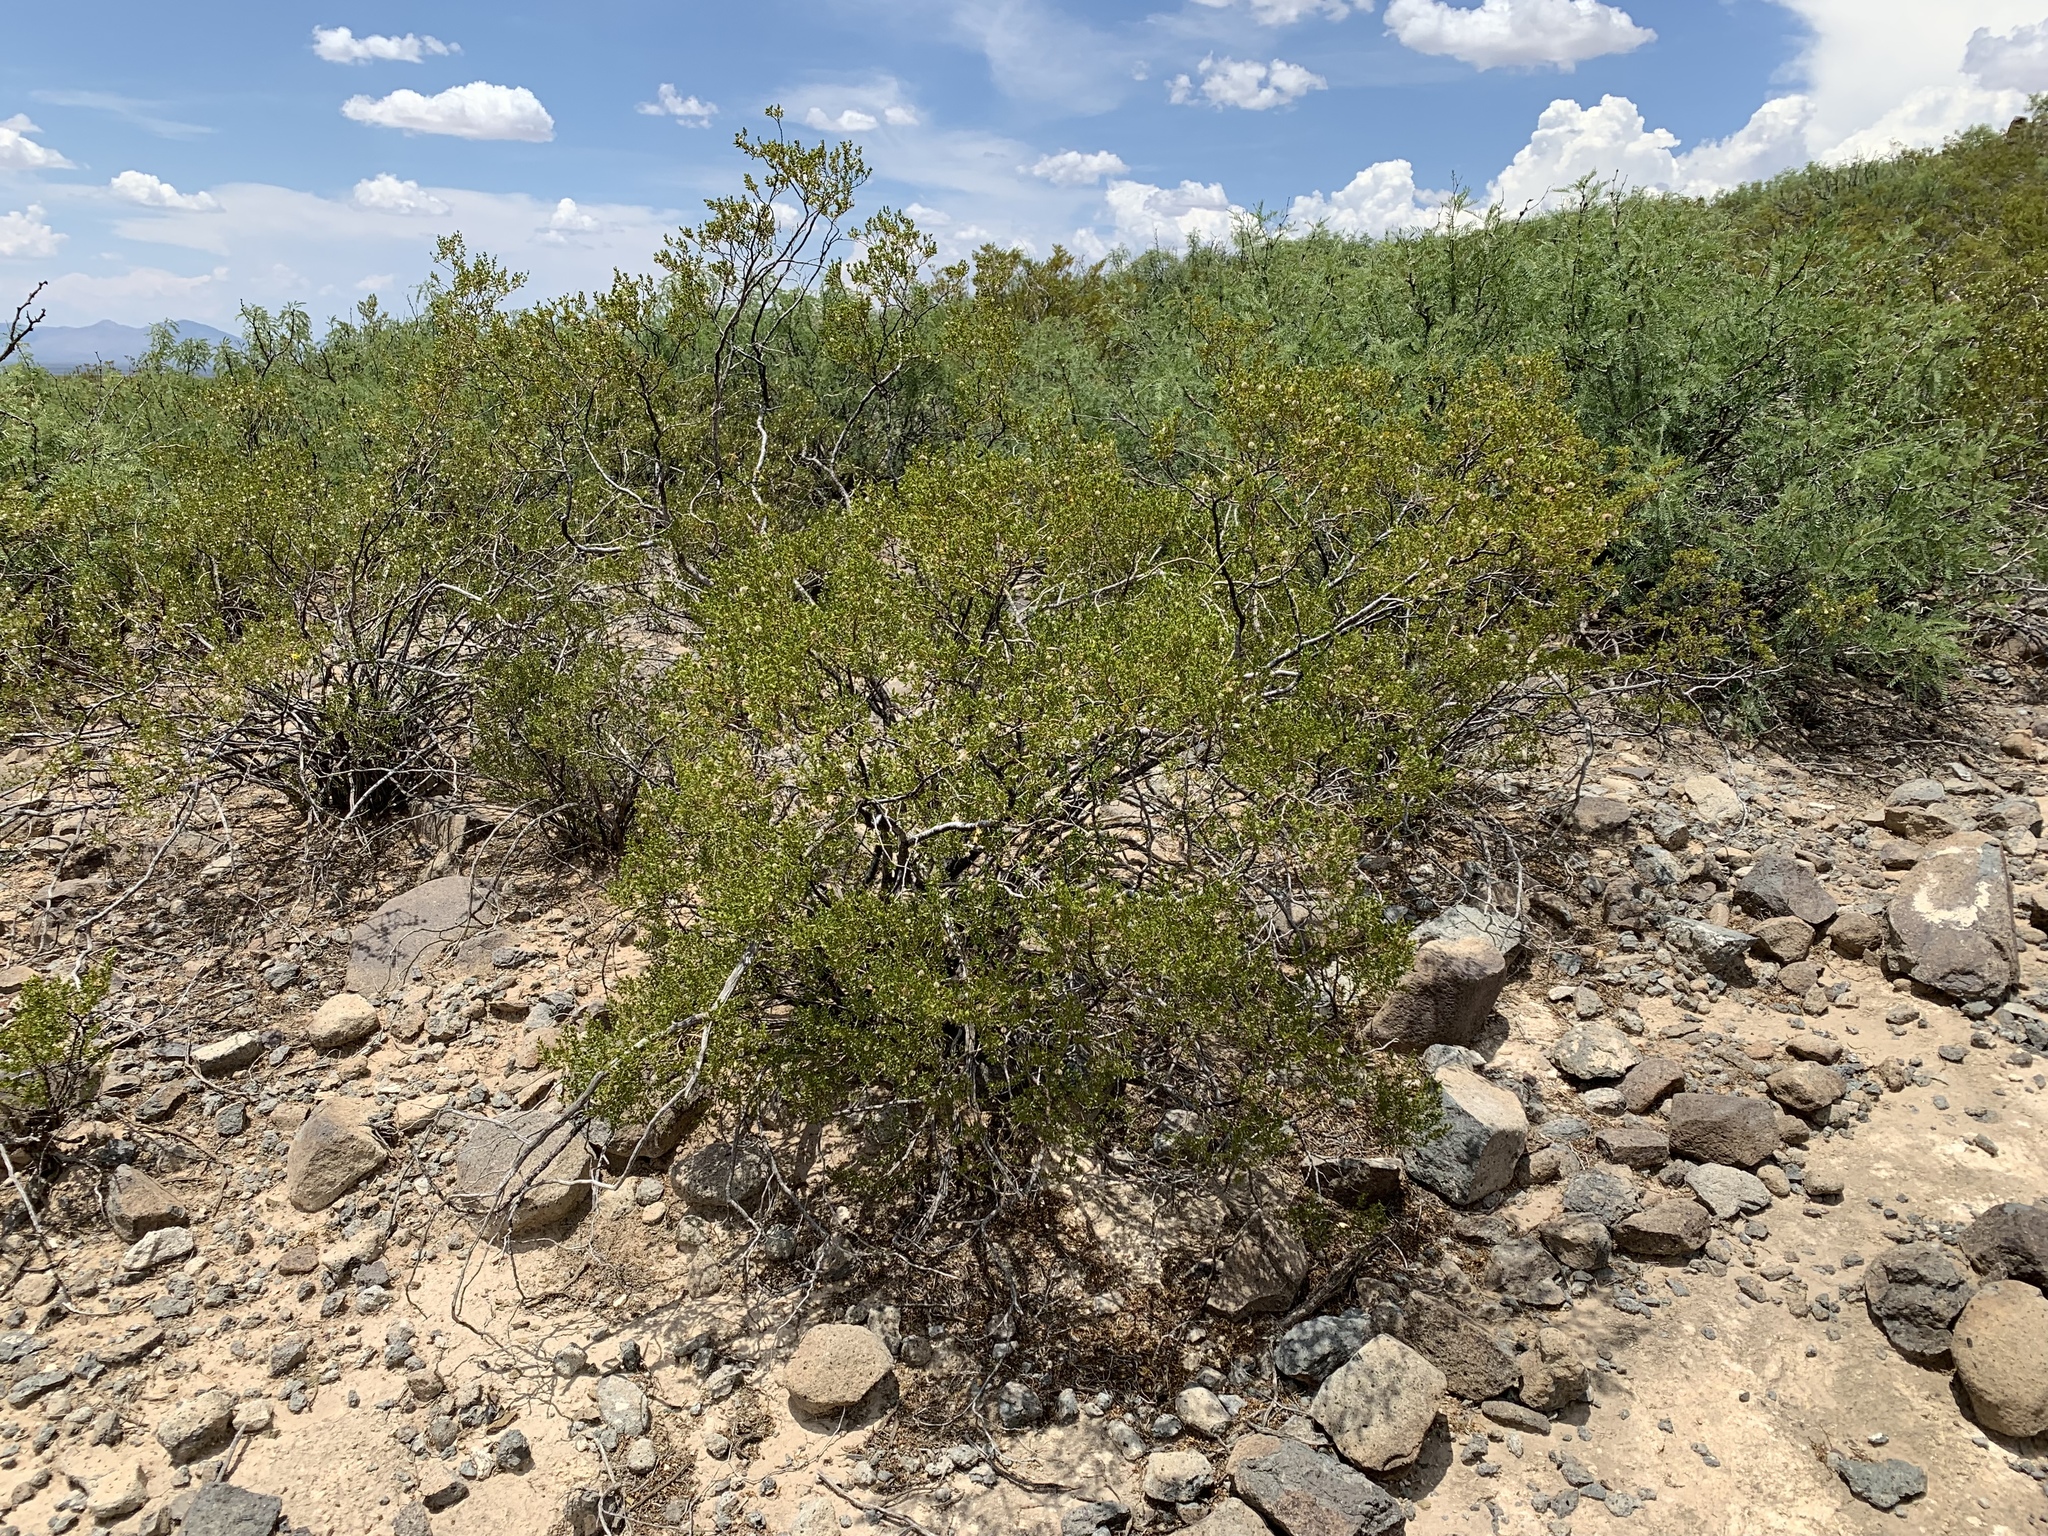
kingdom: Plantae
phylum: Tracheophyta
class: Magnoliopsida
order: Zygophyllales
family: Zygophyllaceae
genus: Larrea
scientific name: Larrea tridentata
